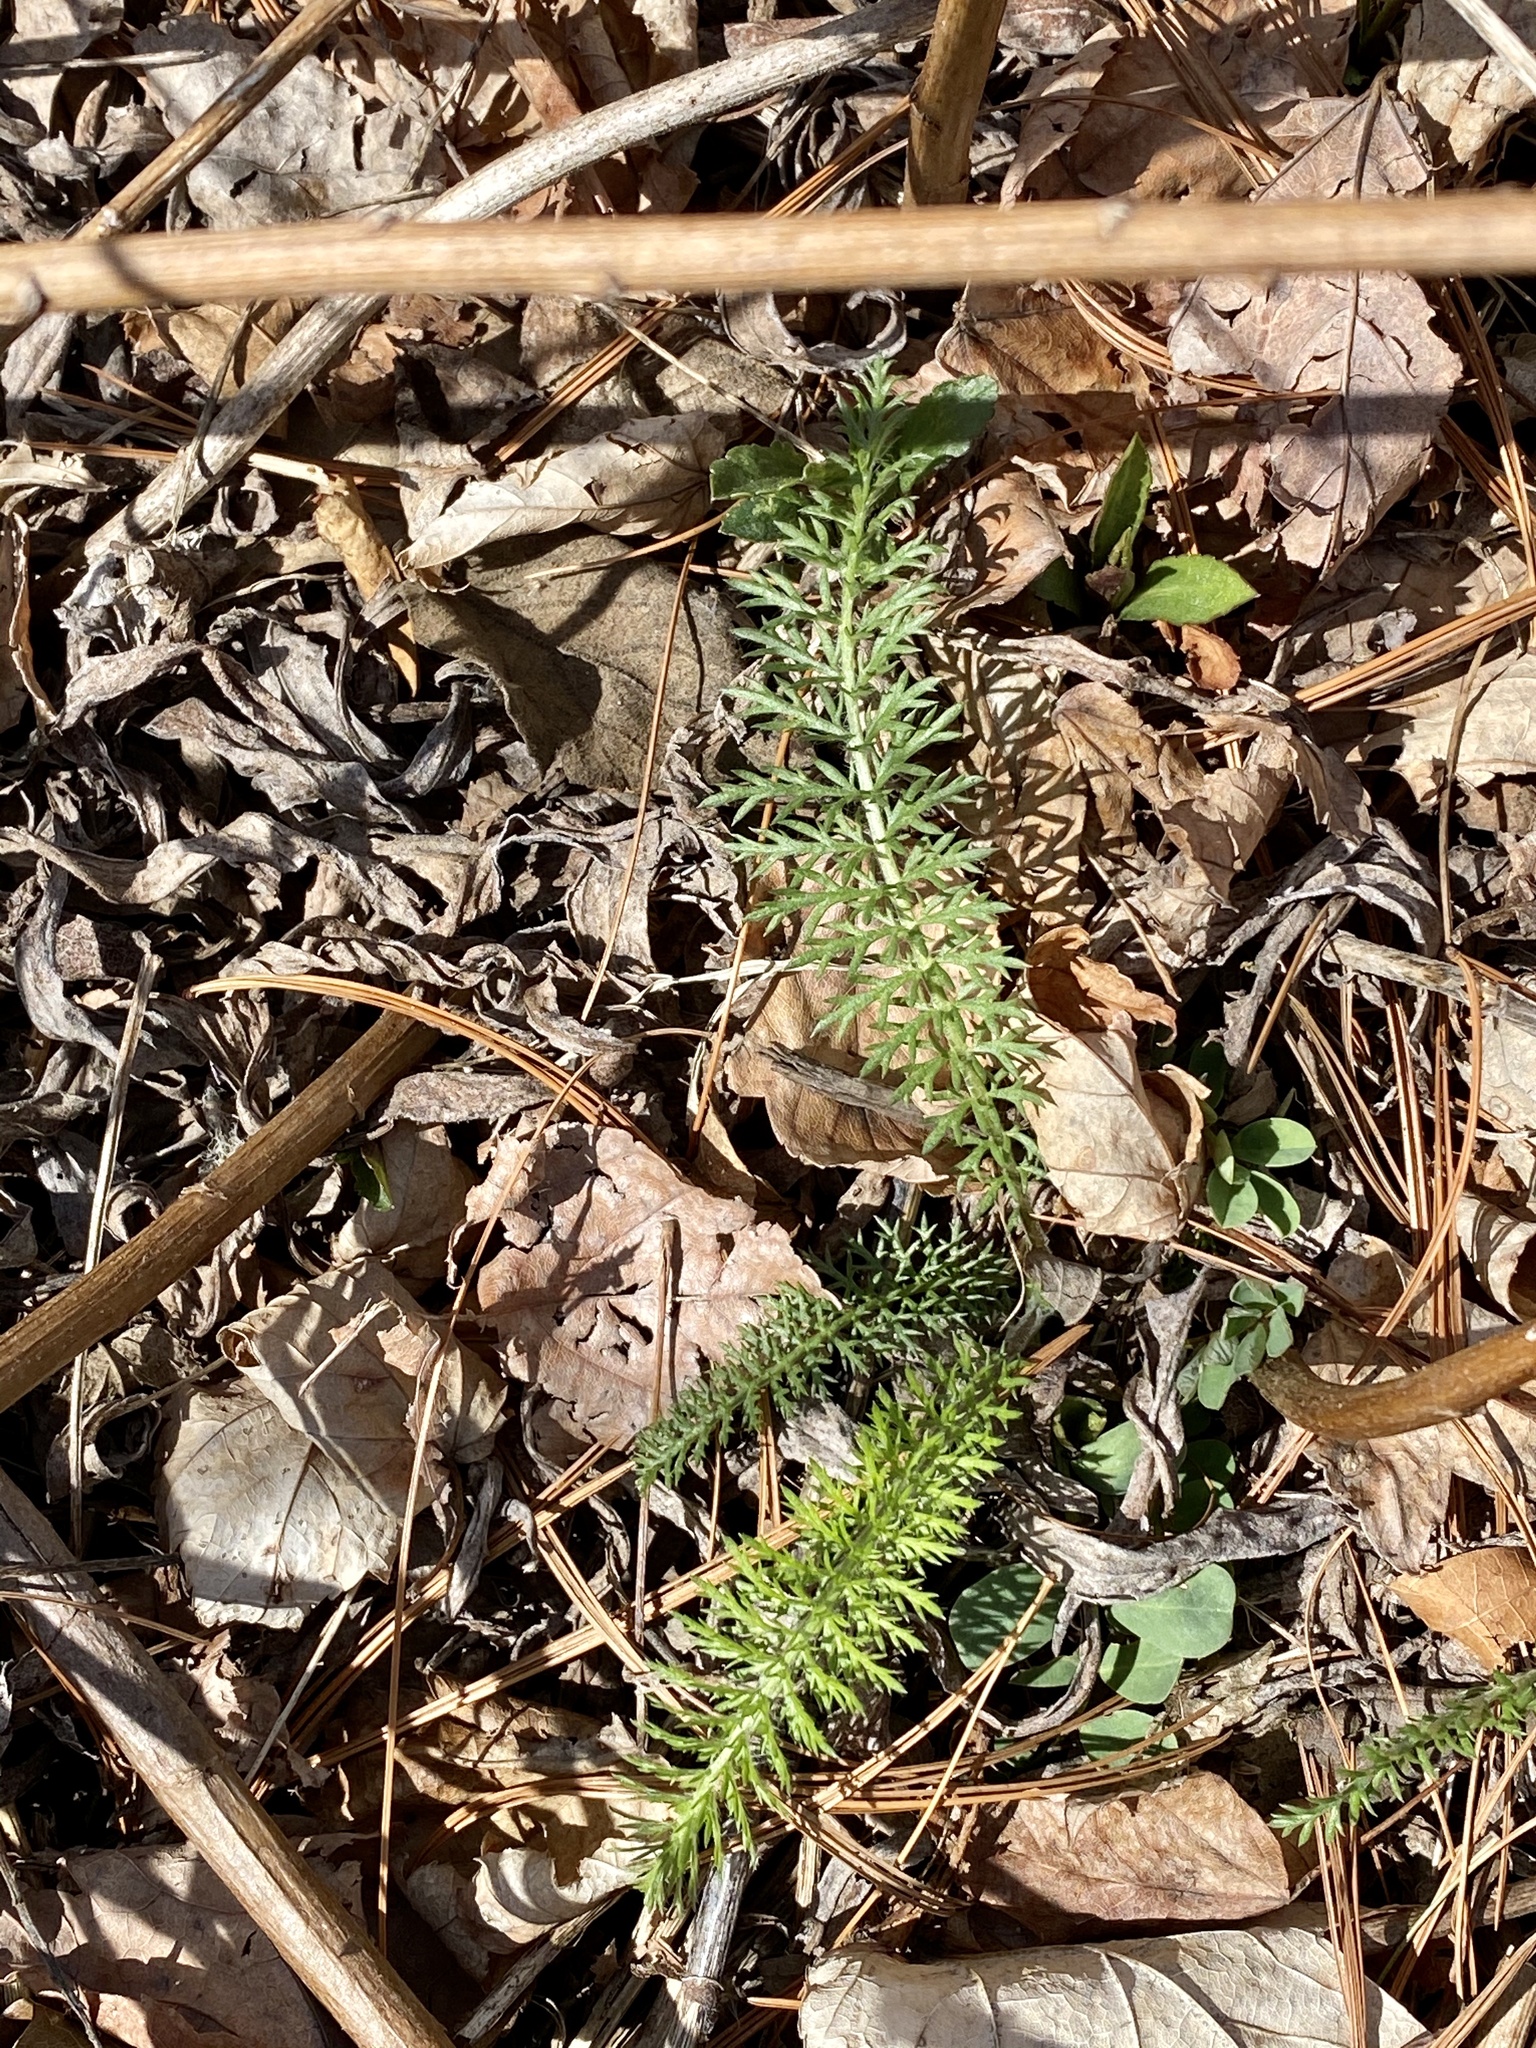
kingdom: Plantae
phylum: Tracheophyta
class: Magnoliopsida
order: Asterales
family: Asteraceae
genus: Achillea
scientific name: Achillea millefolium
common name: Yarrow
